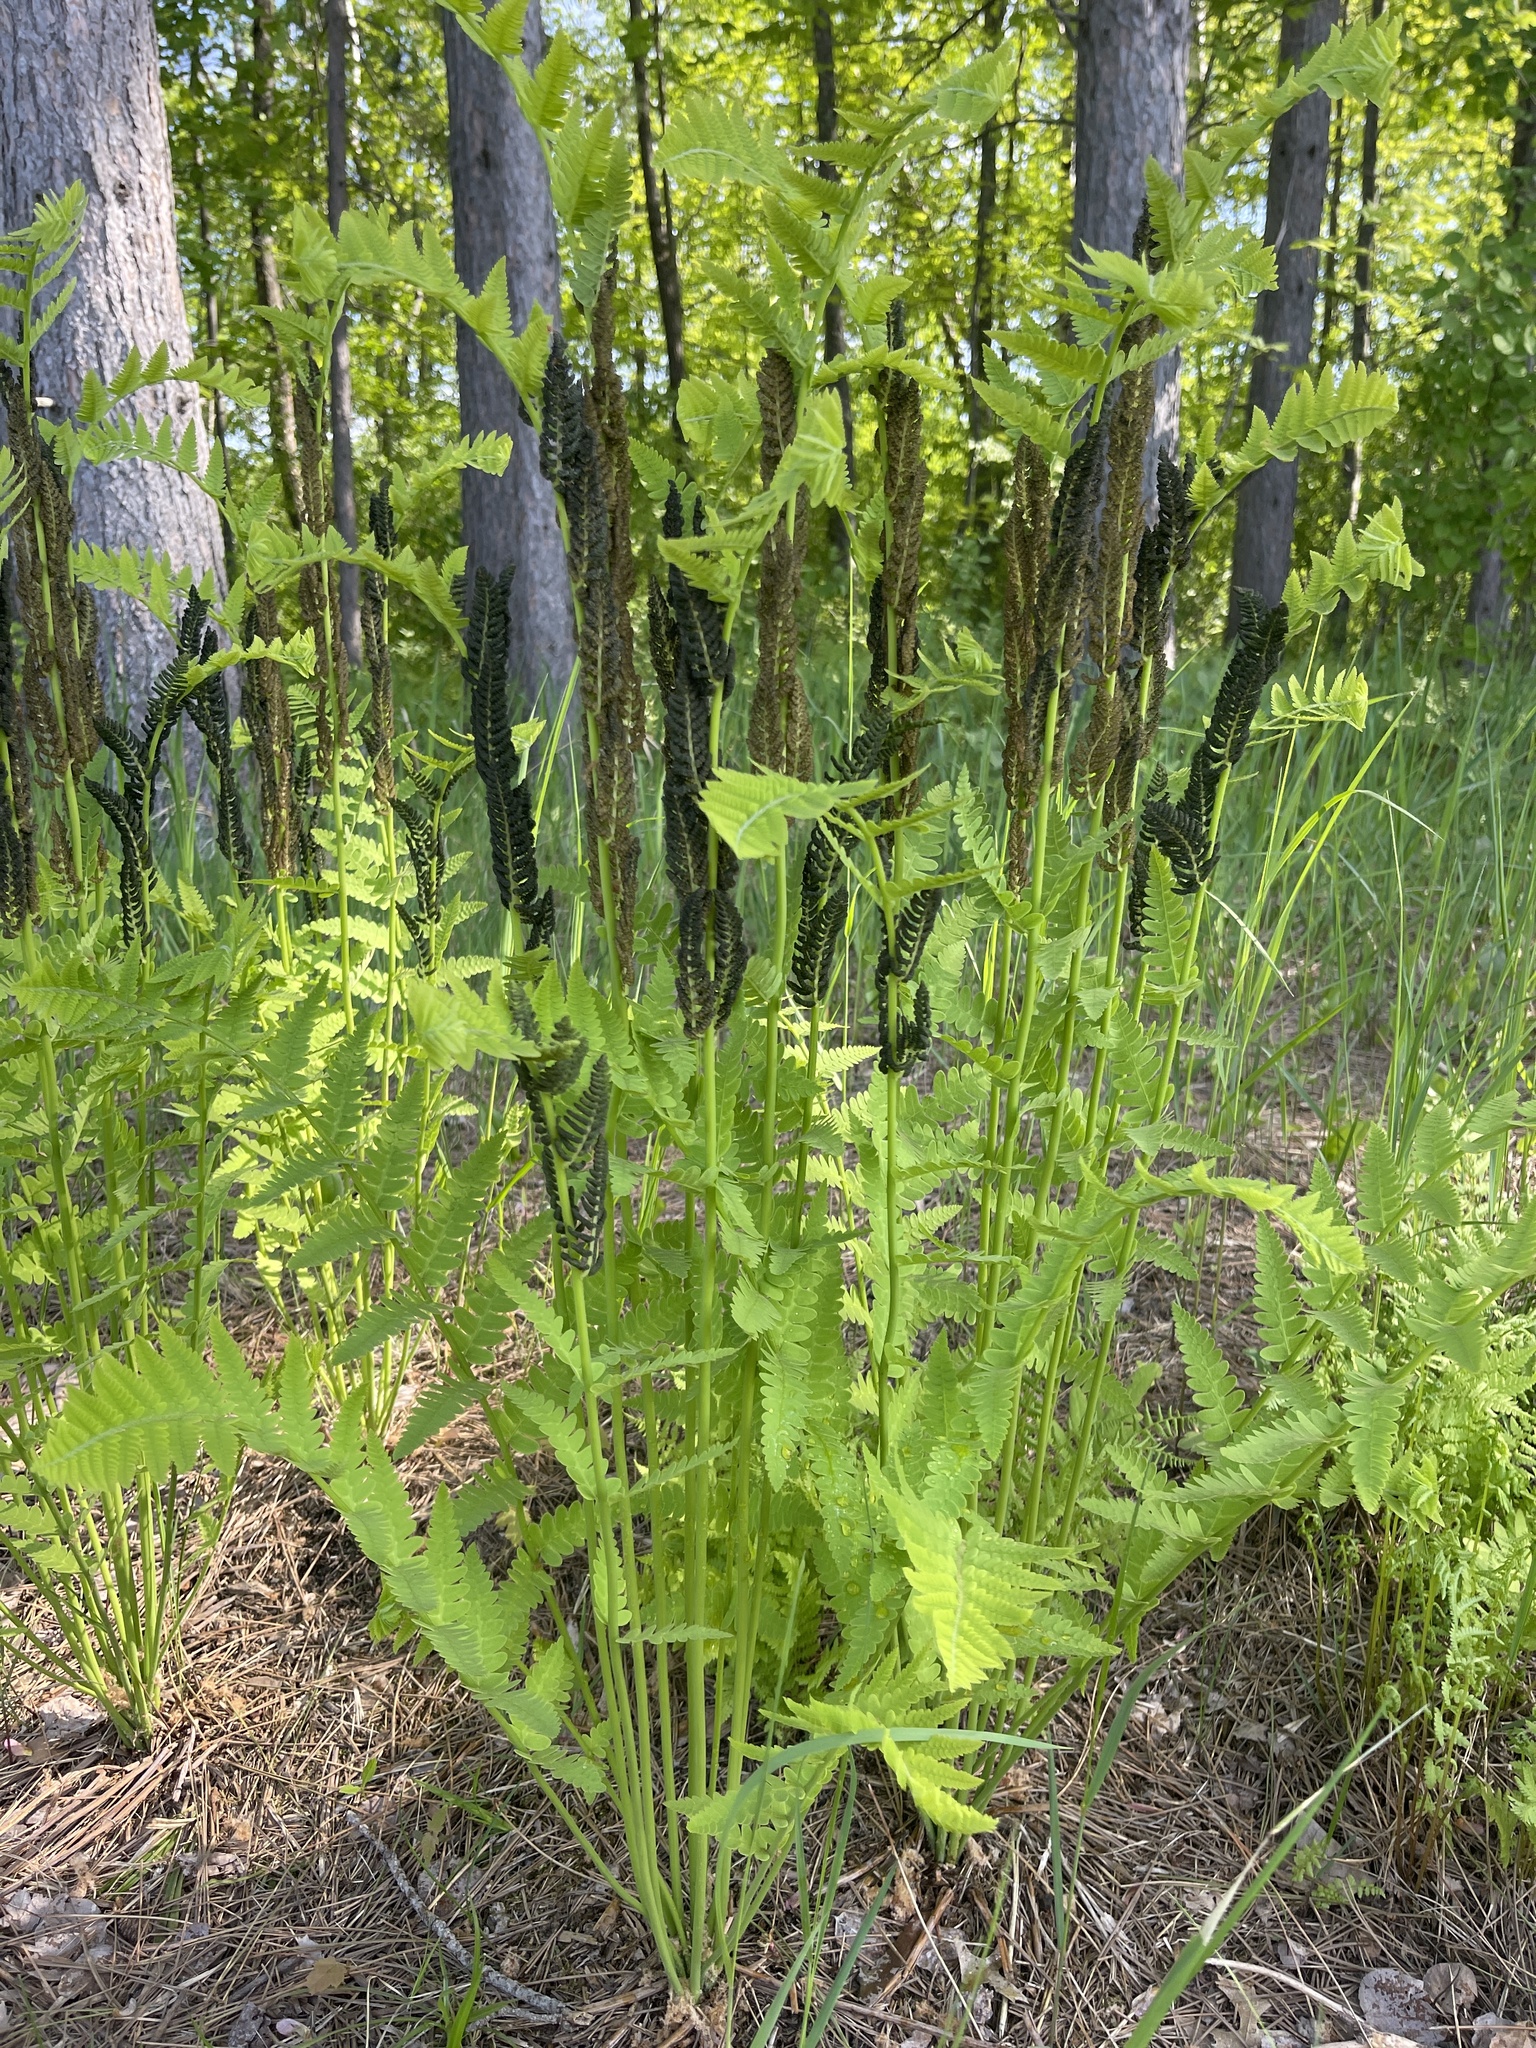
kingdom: Plantae
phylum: Tracheophyta
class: Polypodiopsida
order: Osmundales
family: Osmundaceae
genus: Claytosmunda
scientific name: Claytosmunda claytoniana
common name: Clayton's fern
